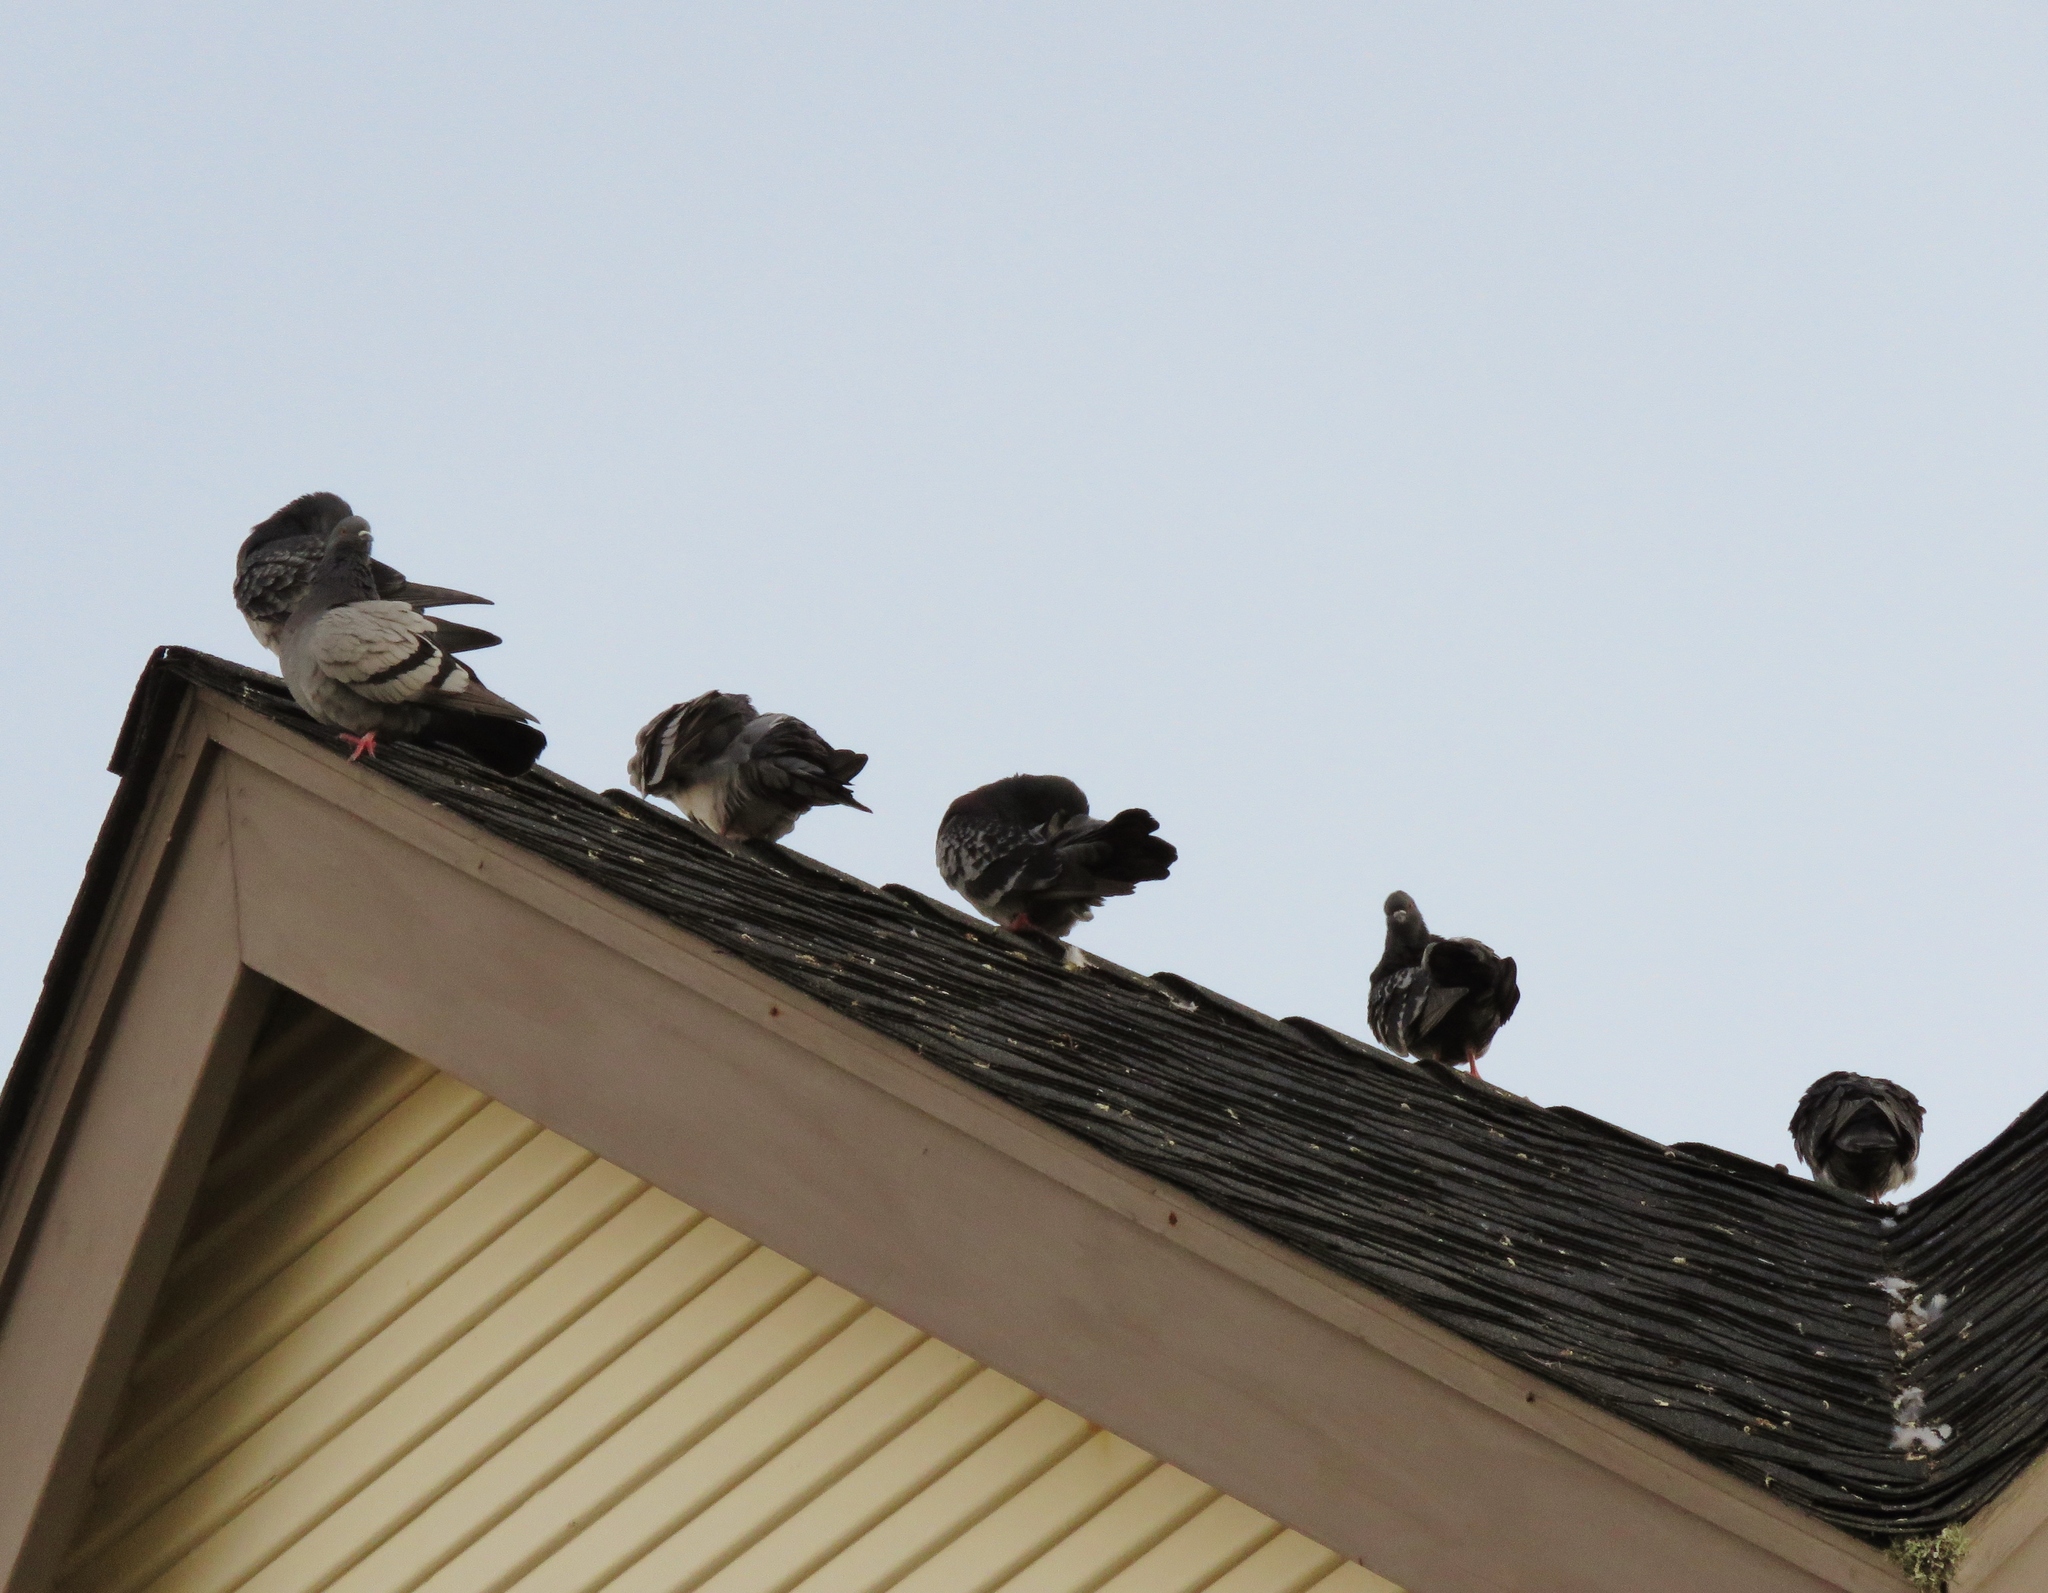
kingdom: Animalia
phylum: Chordata
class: Aves
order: Columbiformes
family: Columbidae
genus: Columba
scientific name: Columba livia
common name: Rock pigeon
